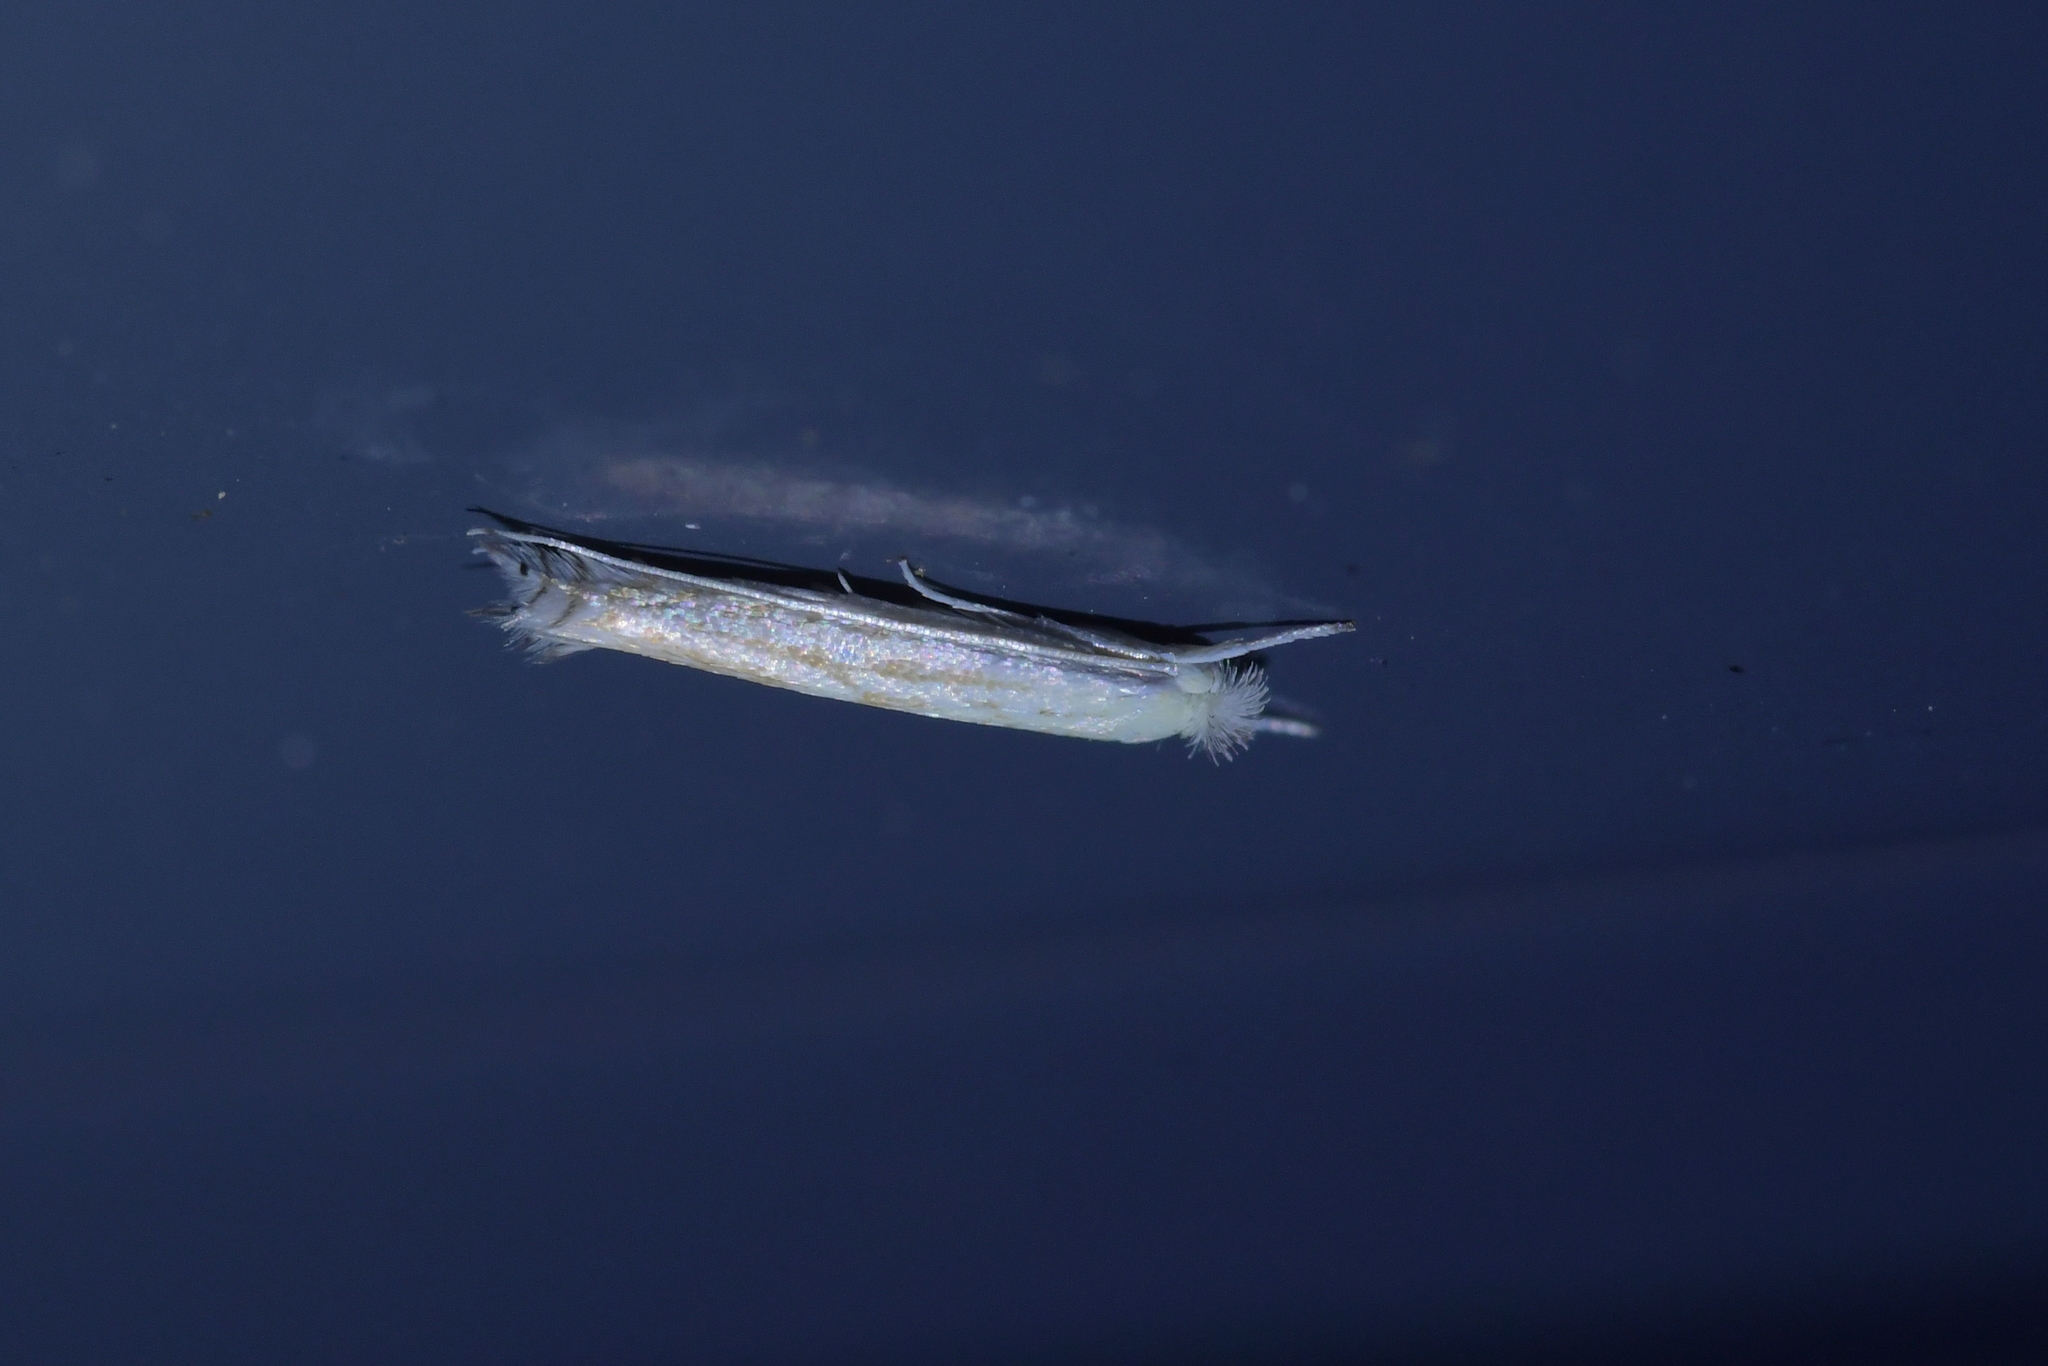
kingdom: Animalia
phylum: Arthropoda
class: Insecta
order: Lepidoptera
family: Lyonetiidae
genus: Stegommata
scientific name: Stegommata sulfuratella
